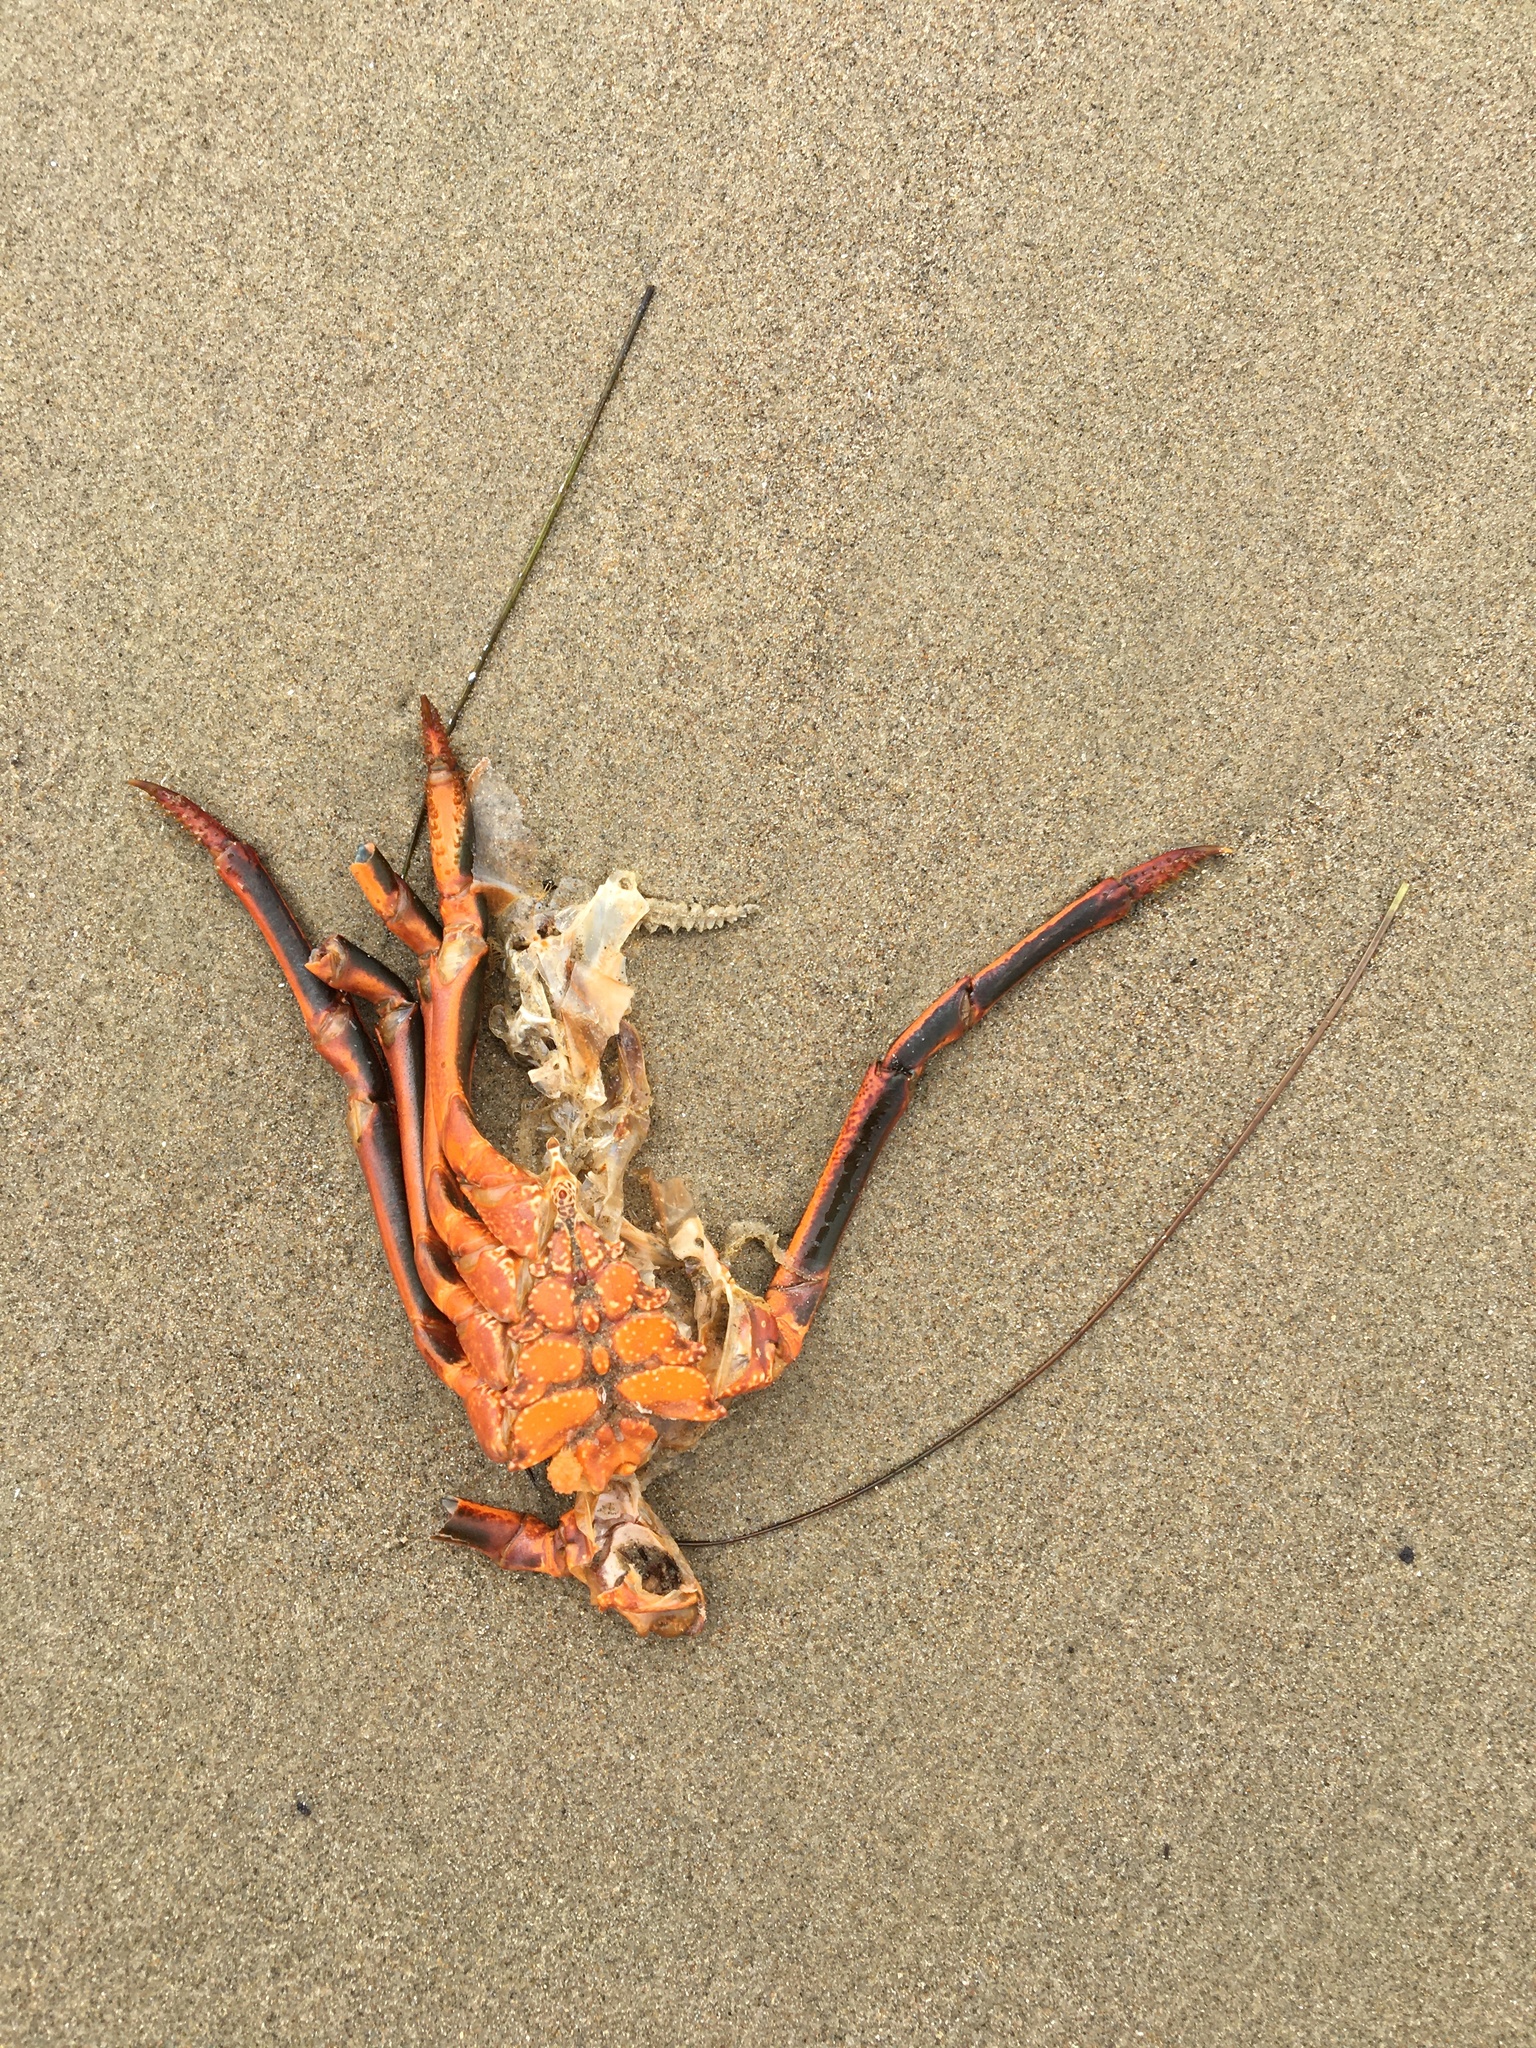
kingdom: Animalia
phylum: Arthropoda
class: Malacostraca
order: Decapoda
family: Palinuridae
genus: Panulirus
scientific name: Panulirus interruptus
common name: California spiny lobster
